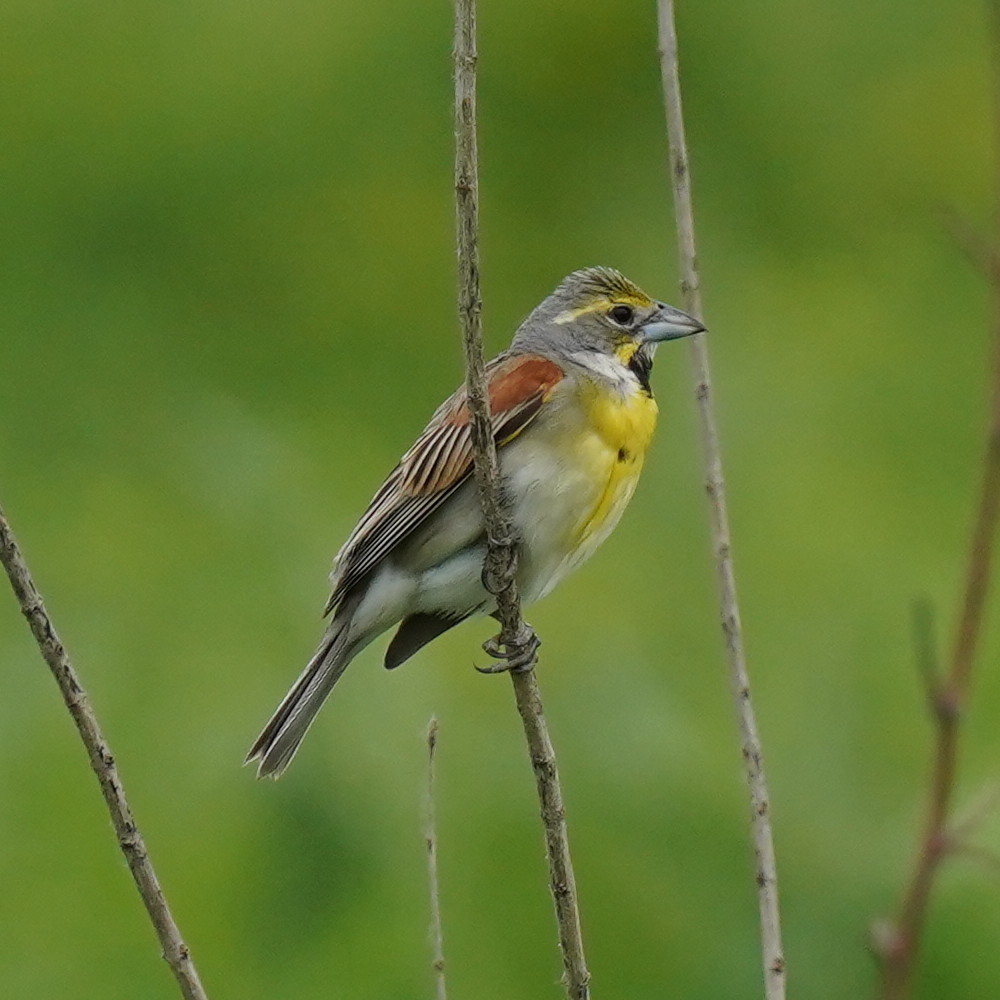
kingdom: Animalia
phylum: Chordata
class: Aves
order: Passeriformes
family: Cardinalidae
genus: Spiza
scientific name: Spiza americana
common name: Dickcissel
